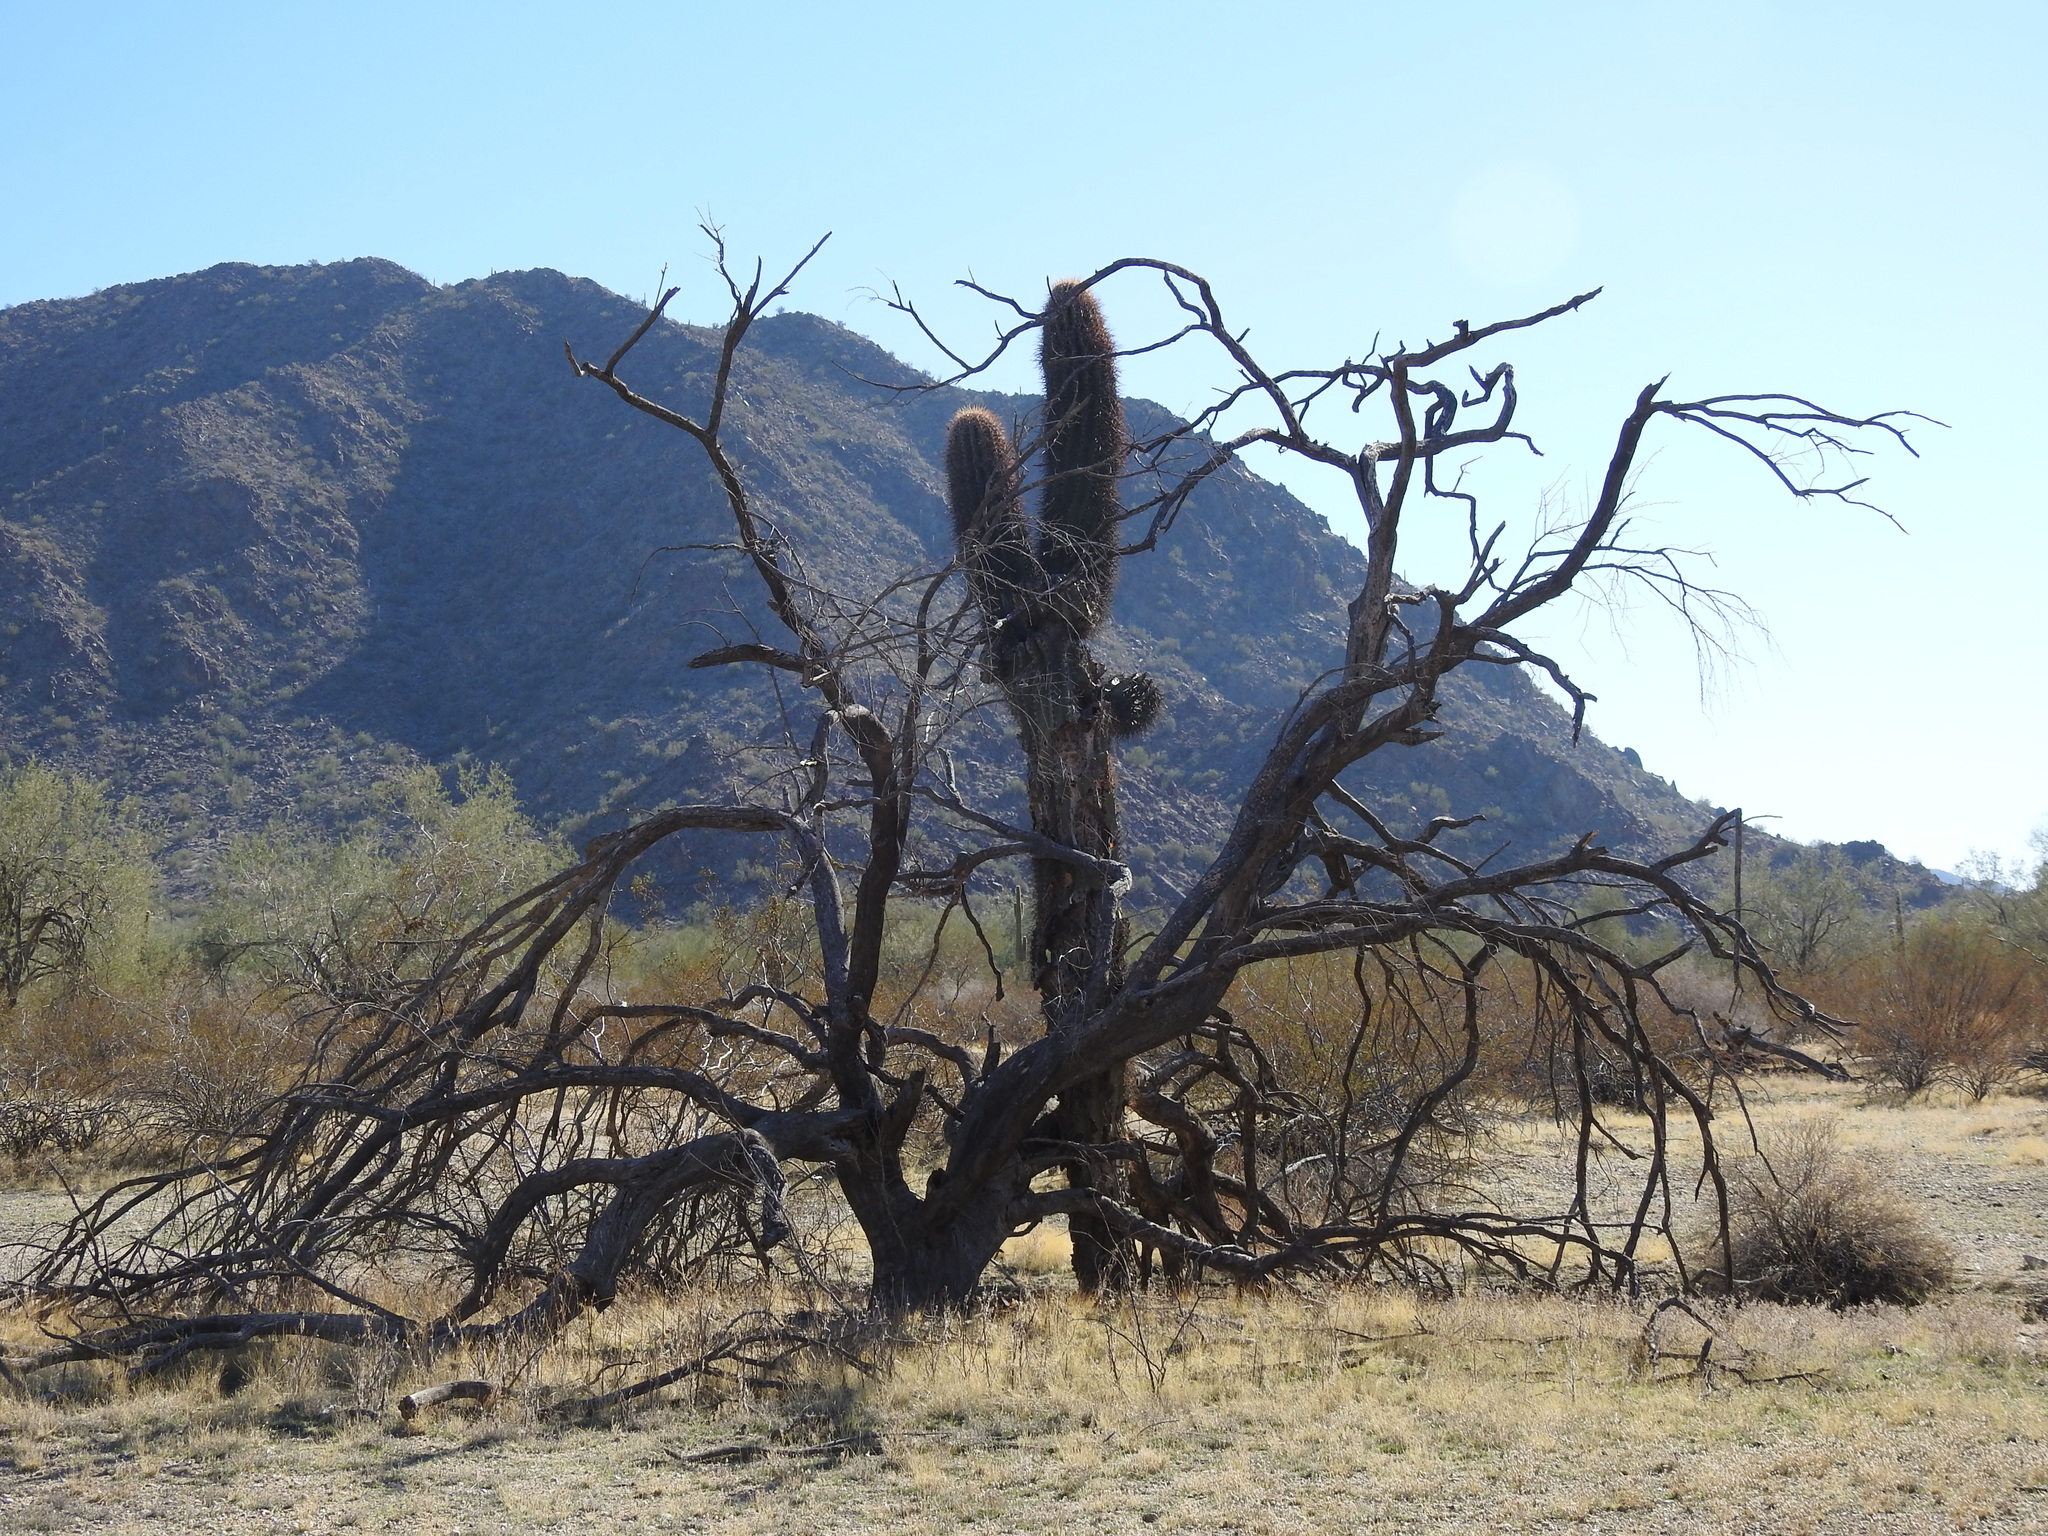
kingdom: Plantae
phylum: Tracheophyta
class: Magnoliopsida
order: Fabales
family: Fabaceae
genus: Olneya
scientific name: Olneya tesota
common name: Desert ironwood
